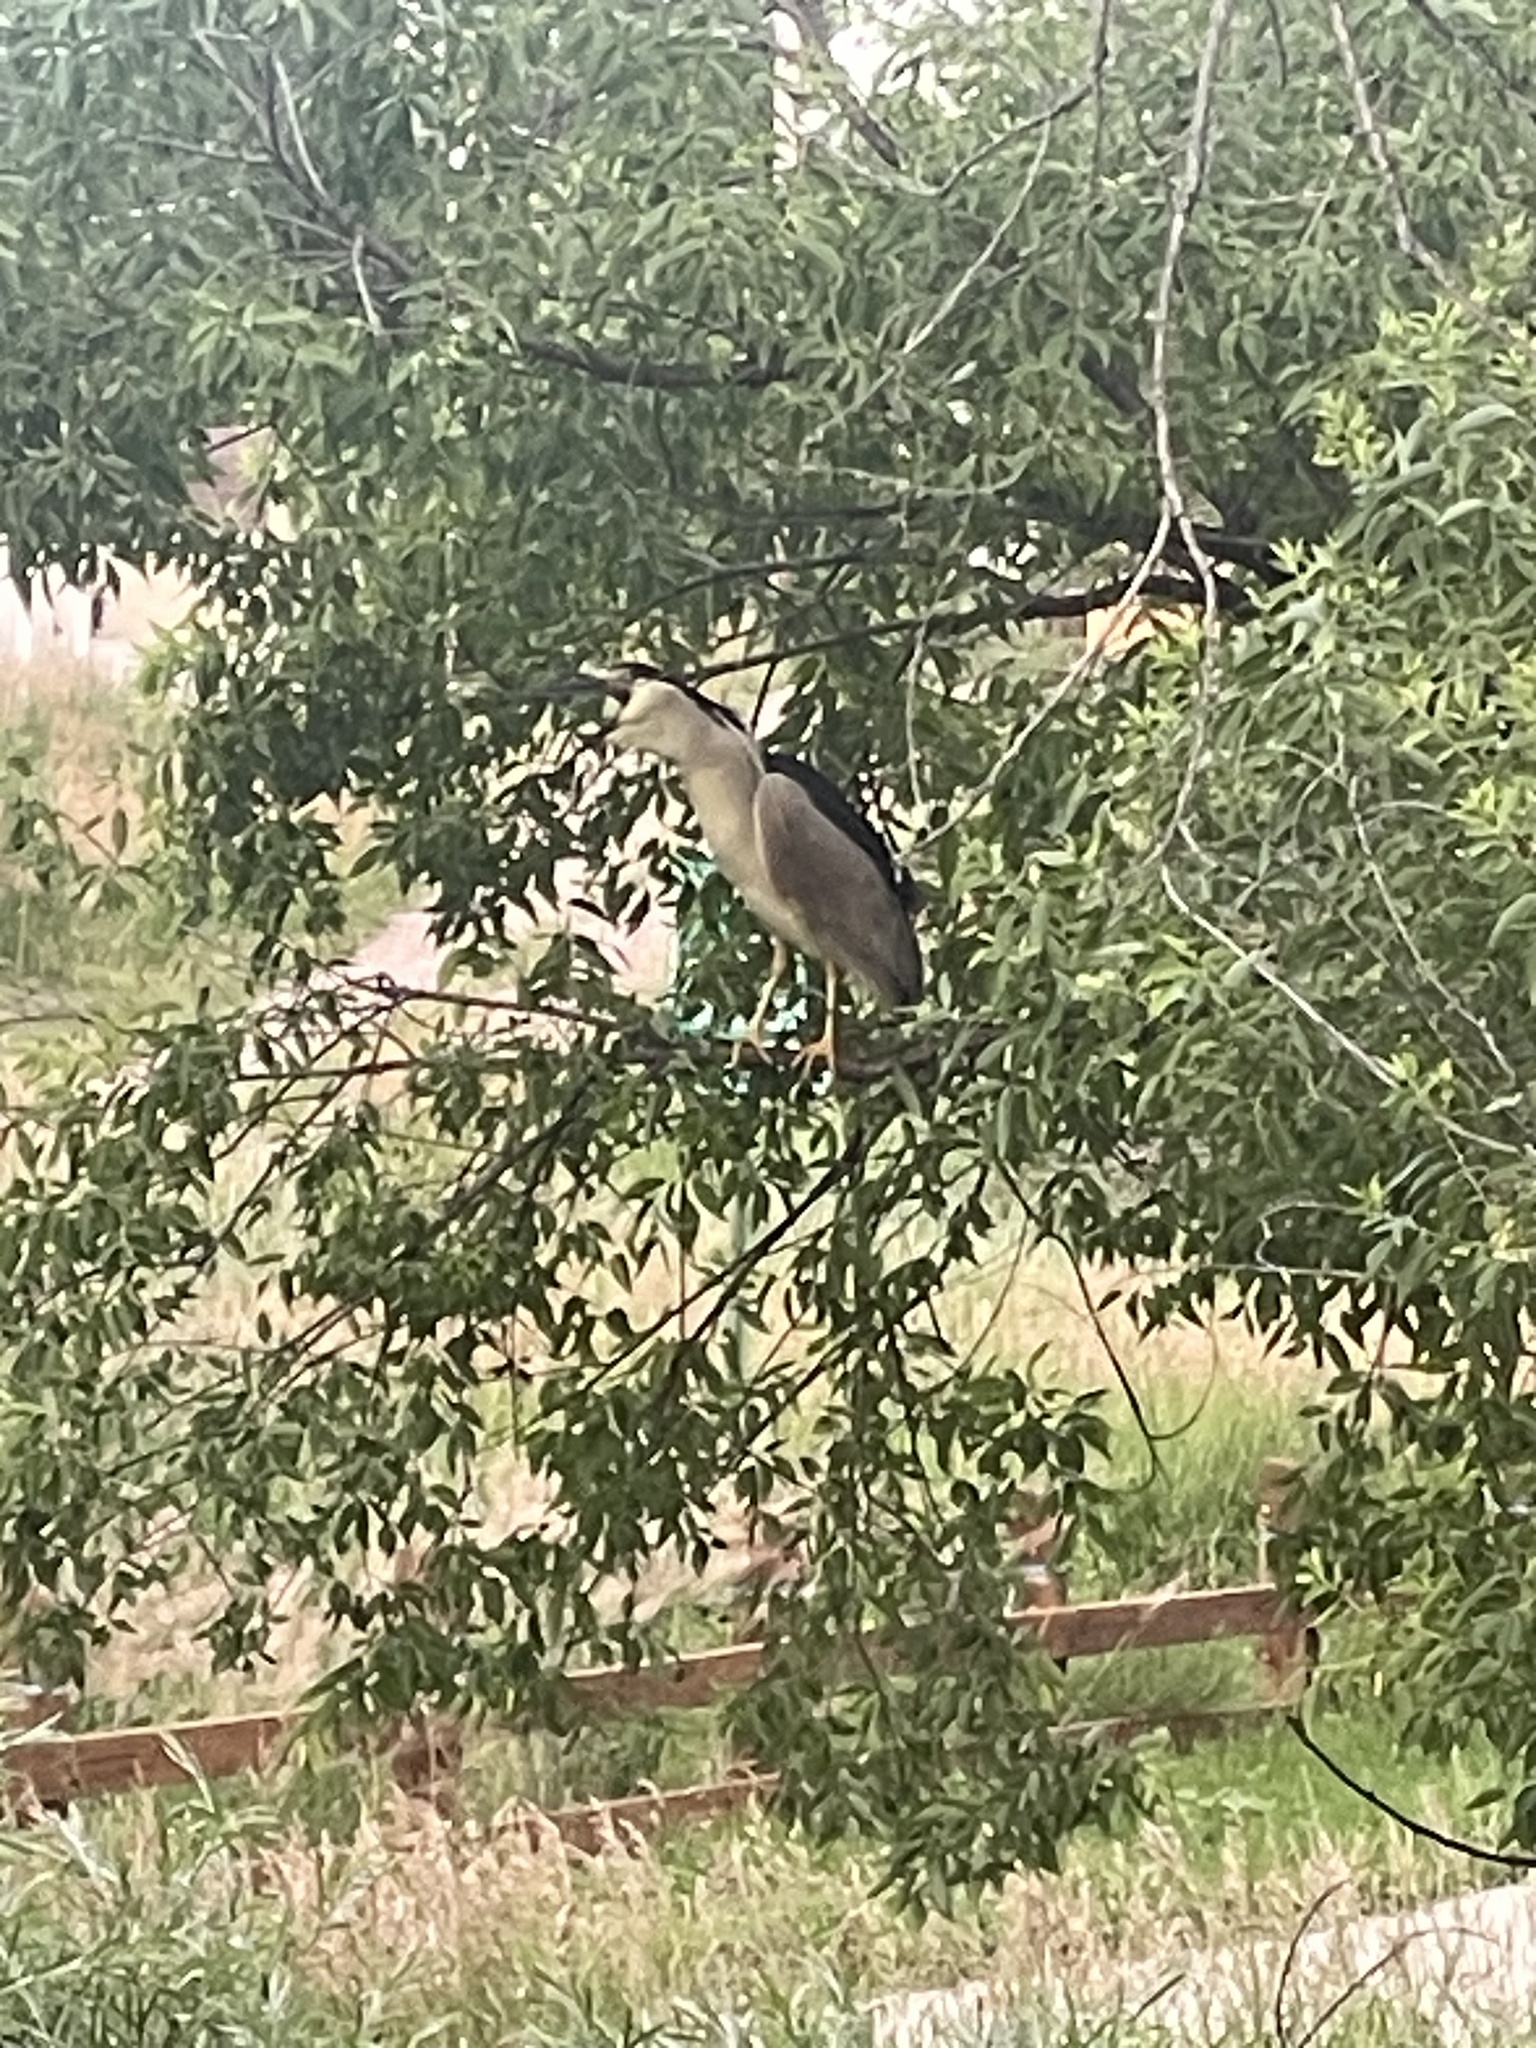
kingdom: Animalia
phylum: Chordata
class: Aves
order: Pelecaniformes
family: Ardeidae
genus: Nycticorax
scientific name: Nycticorax nycticorax
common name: Black-crowned night heron
